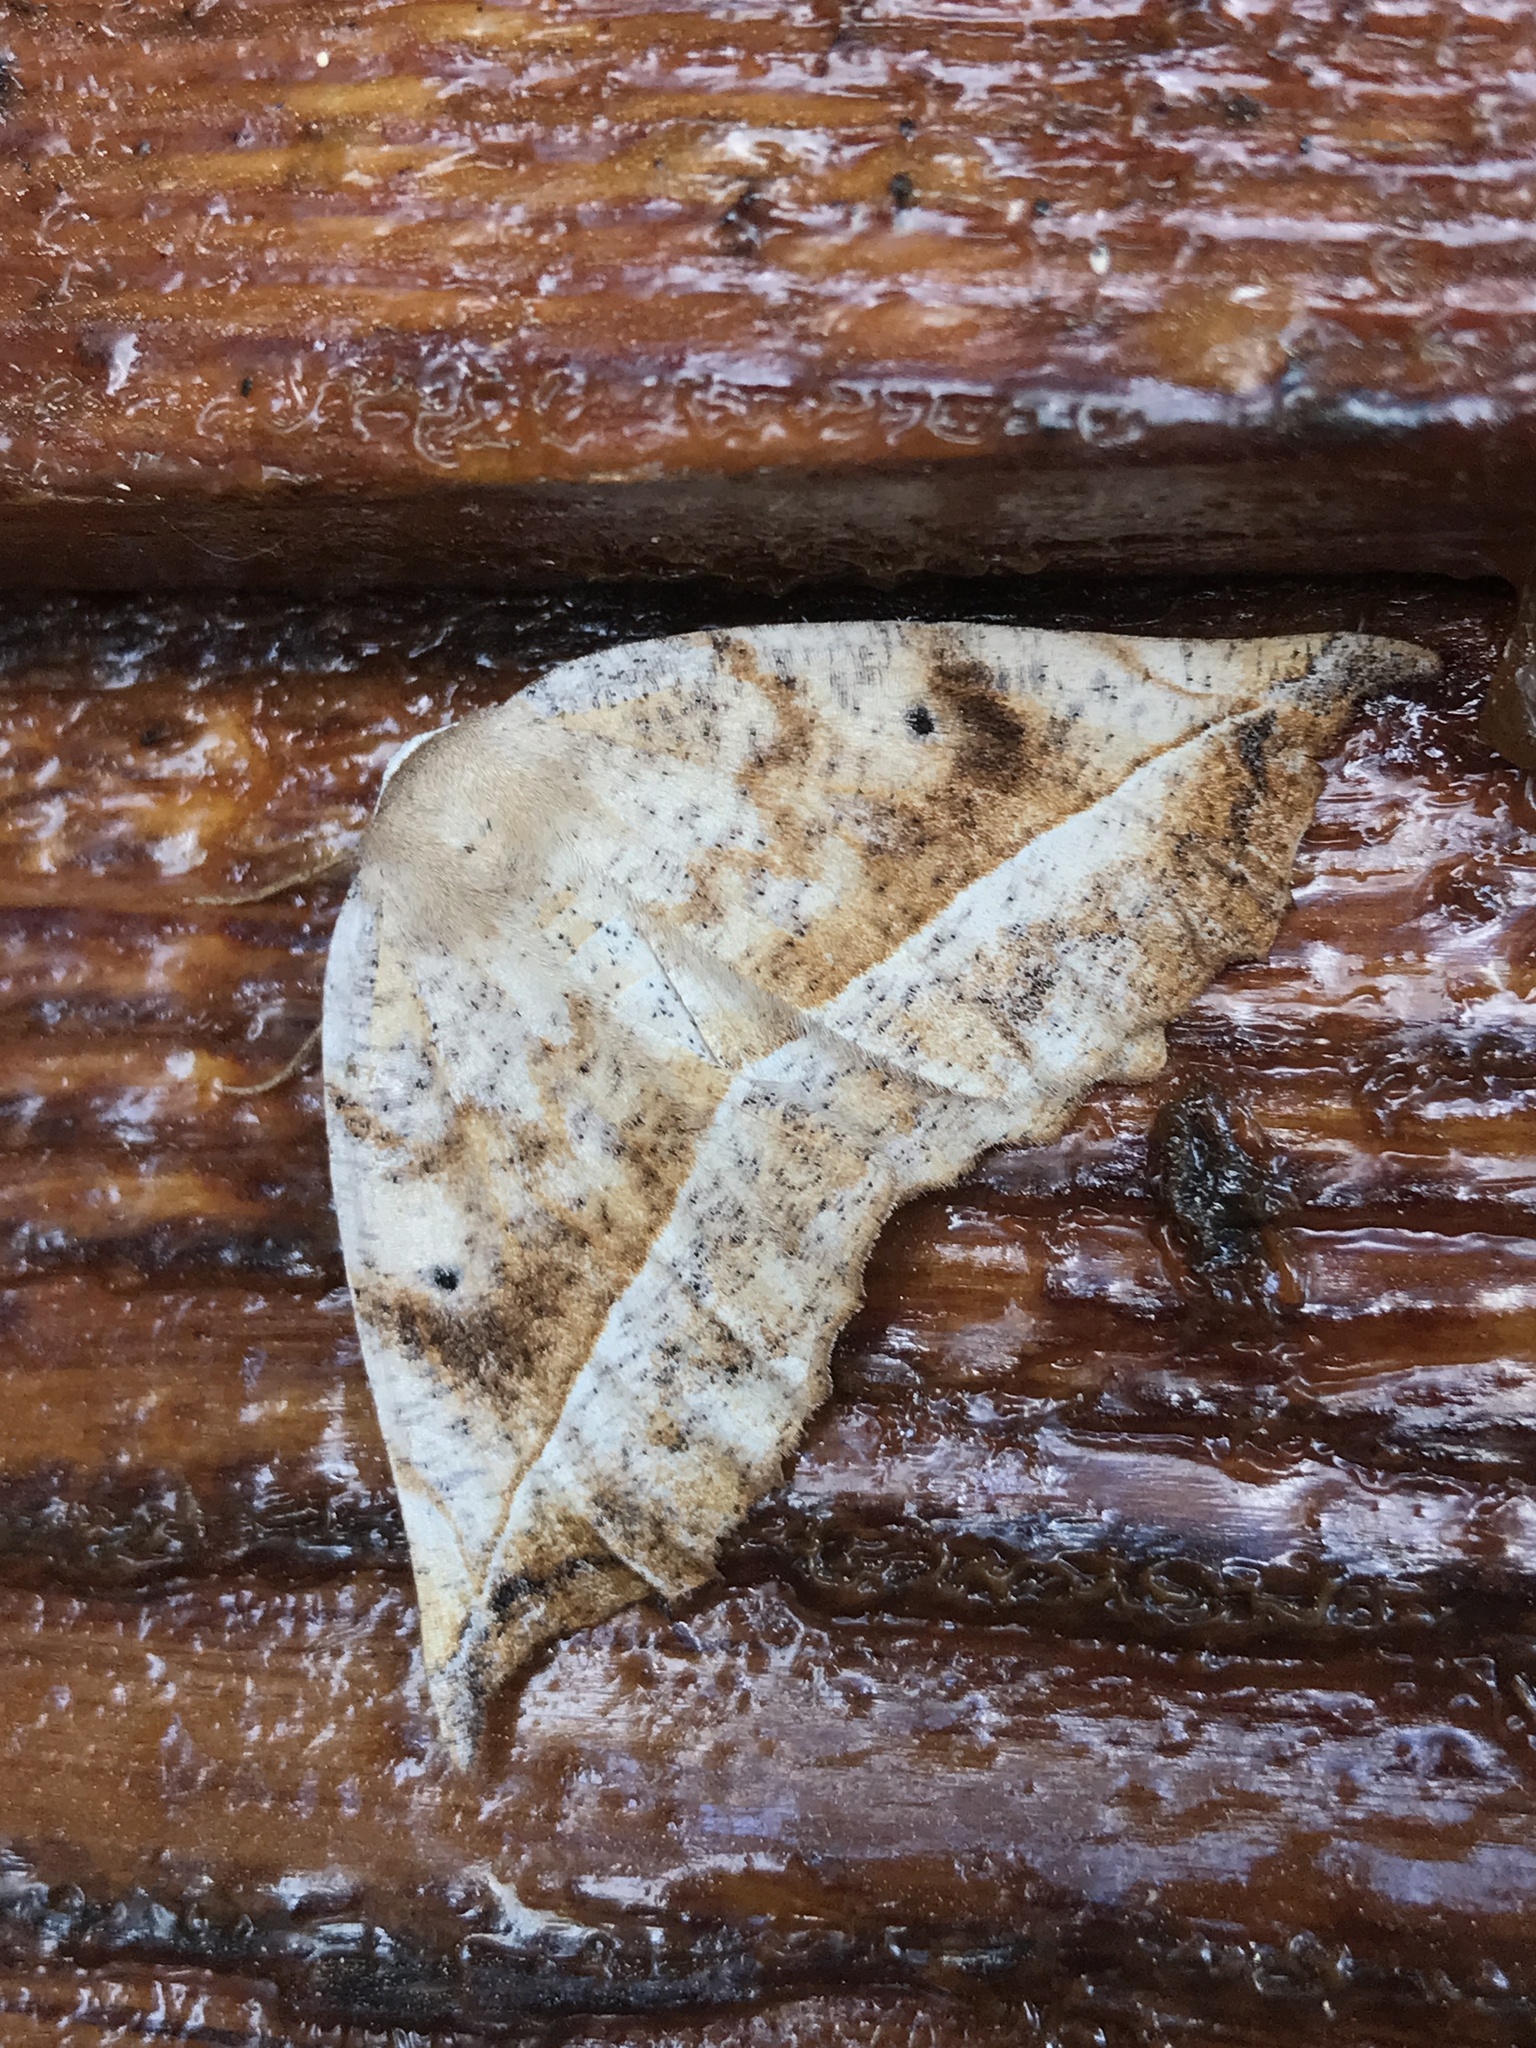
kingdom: Animalia
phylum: Arthropoda
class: Insecta
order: Lepidoptera
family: Geometridae
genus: Eutrapela
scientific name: Eutrapela clemataria
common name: Curved-toothed geometer
